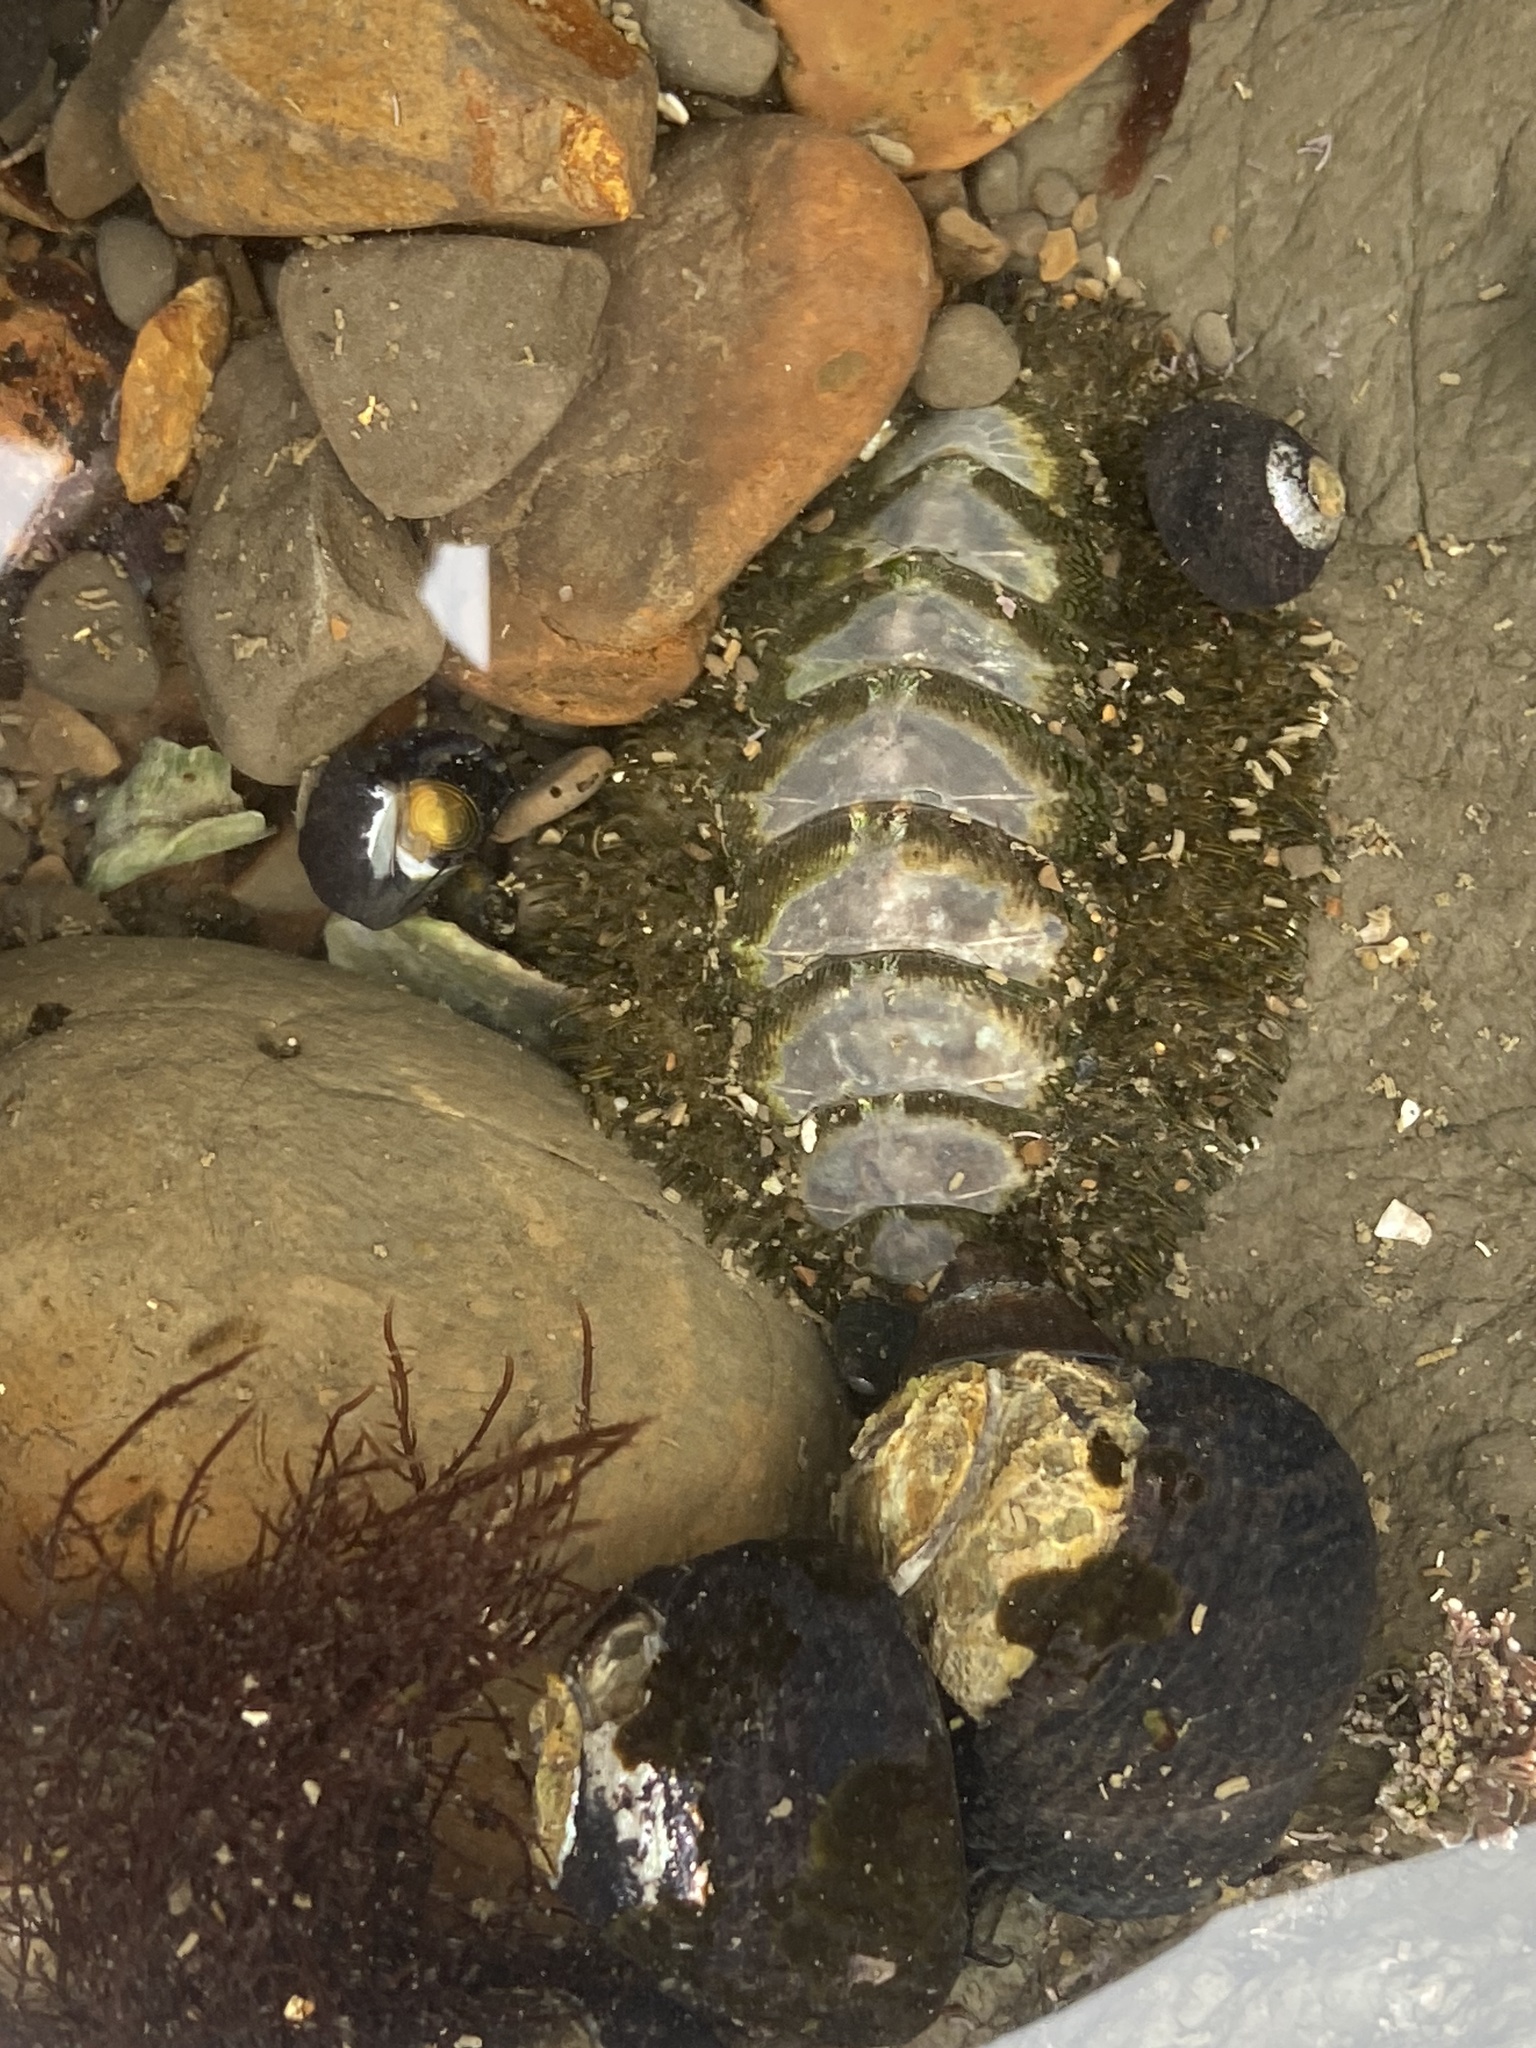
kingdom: Animalia
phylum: Mollusca
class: Polyplacophora
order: Chitonida
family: Mopaliidae
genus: Mopalia
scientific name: Mopalia muscosa
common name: Mossy chiton
